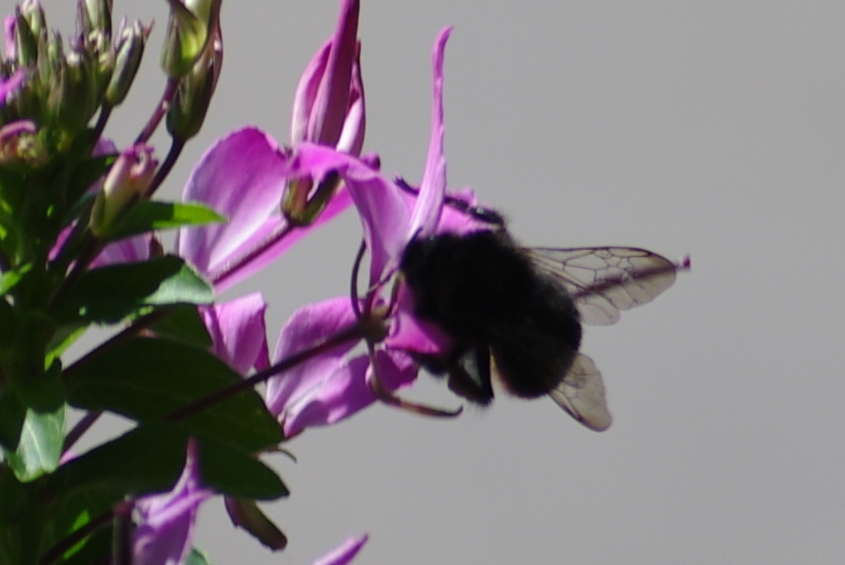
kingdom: Animalia
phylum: Arthropoda
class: Insecta
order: Hymenoptera
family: Apidae
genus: Bombus
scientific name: Bombus lapidarius
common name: Large red-tailed humble-bee
